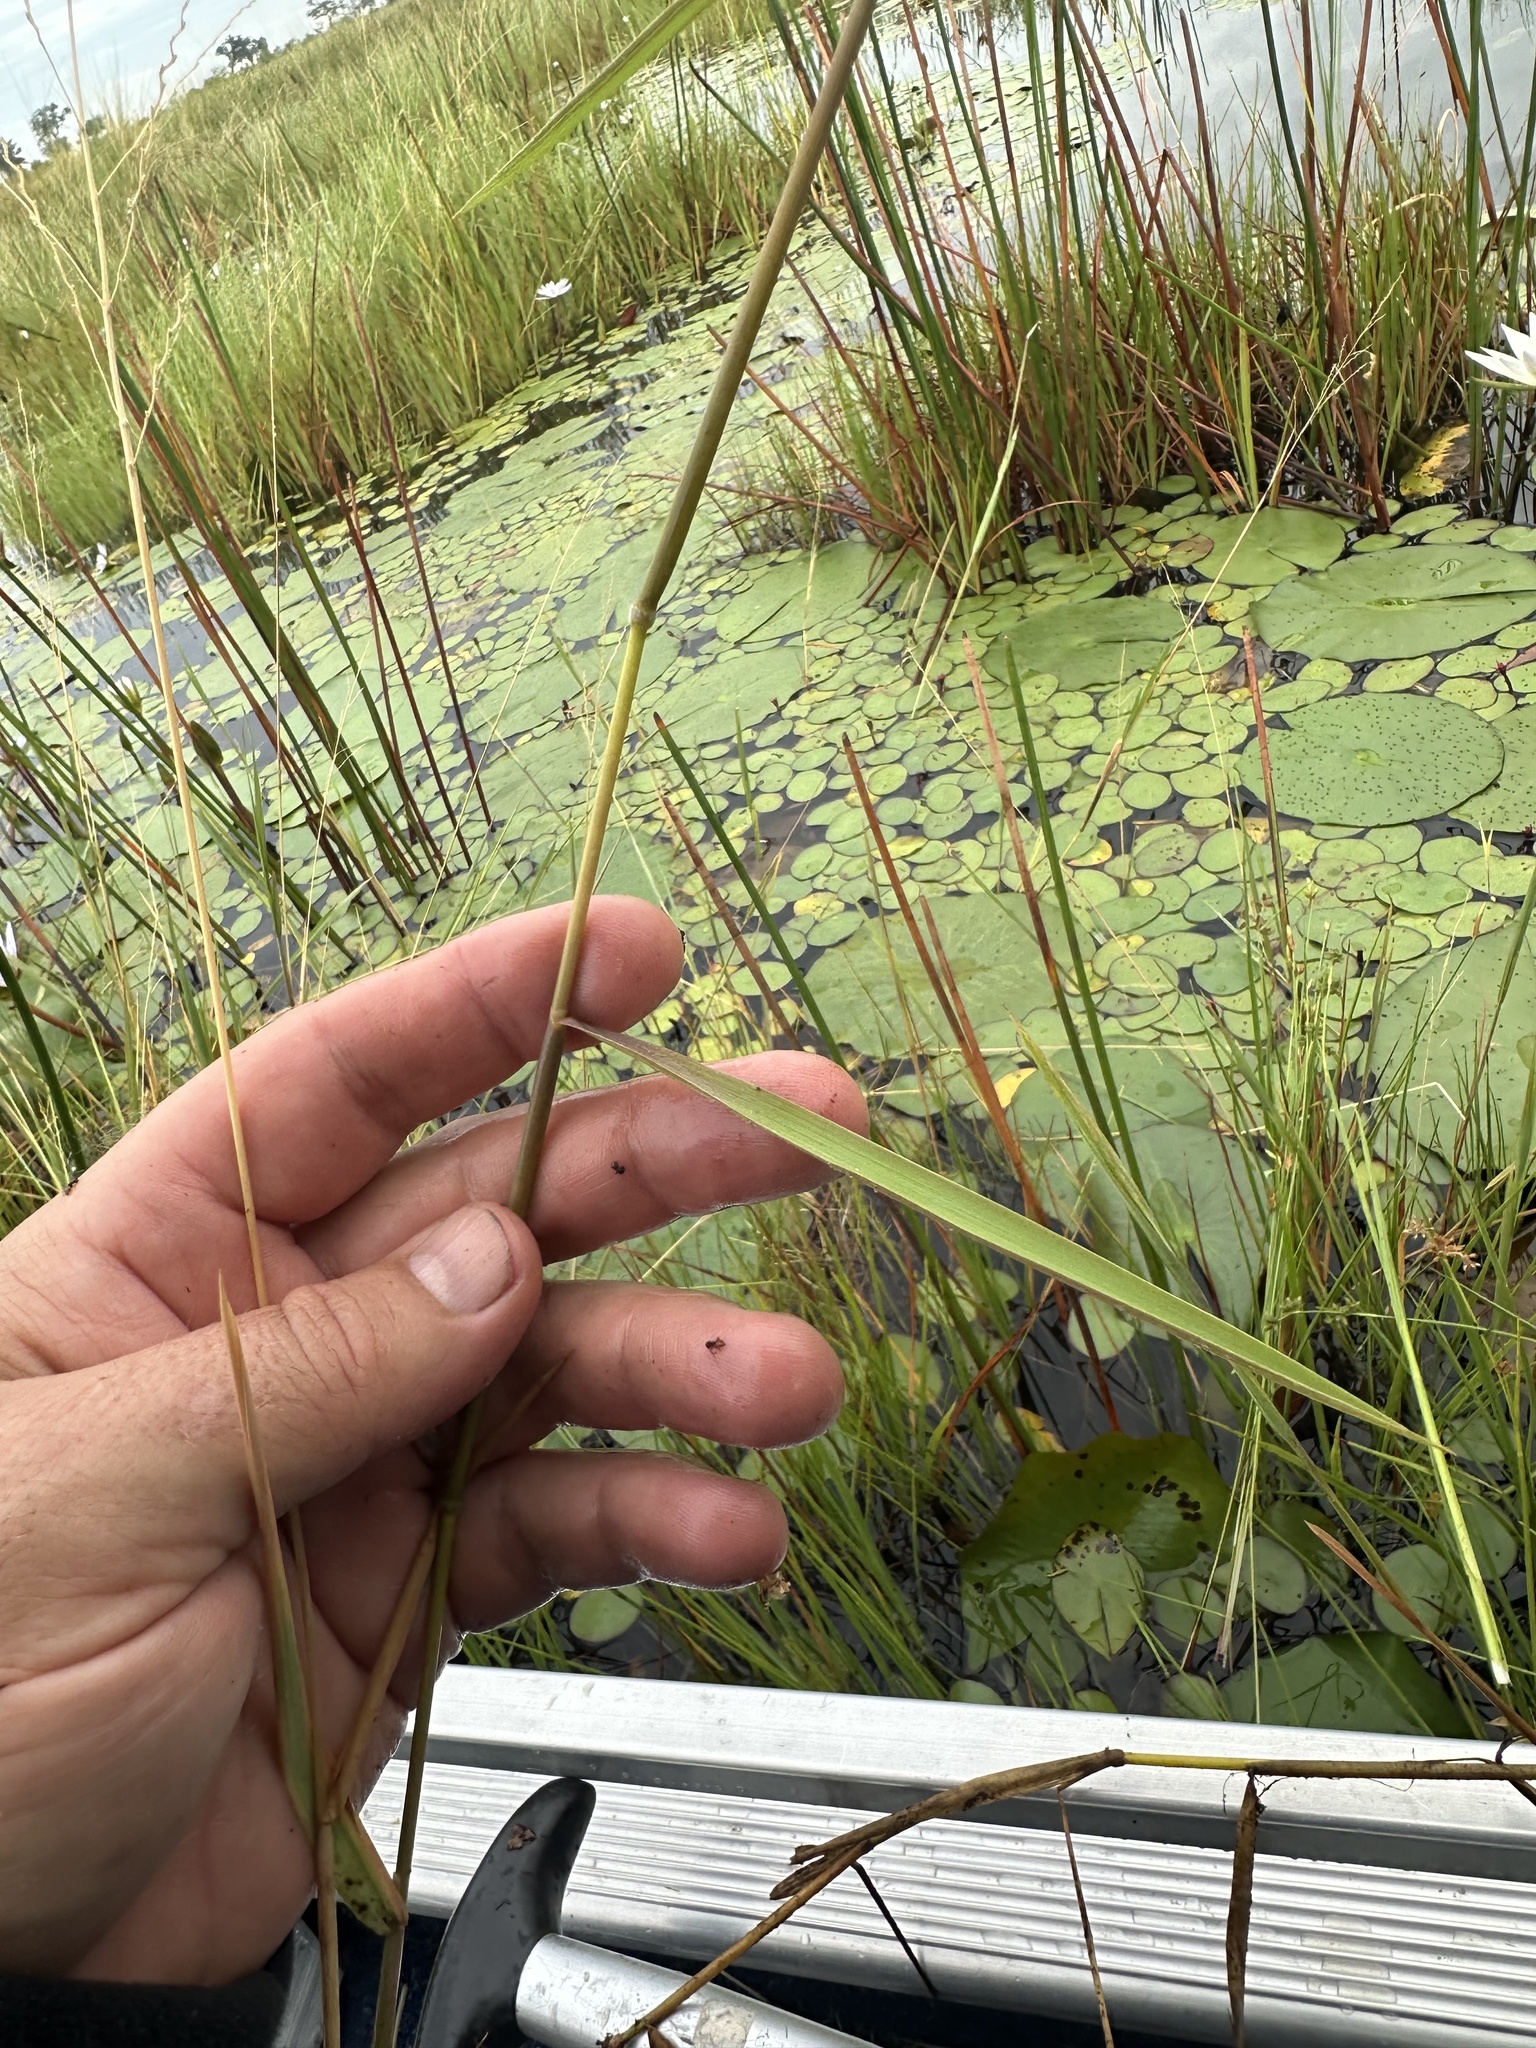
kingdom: Plantae
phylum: Tracheophyta
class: Liliopsida
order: Poales
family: Poaceae
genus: Leersia
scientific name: Leersia hexandra
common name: Southern cut grass
